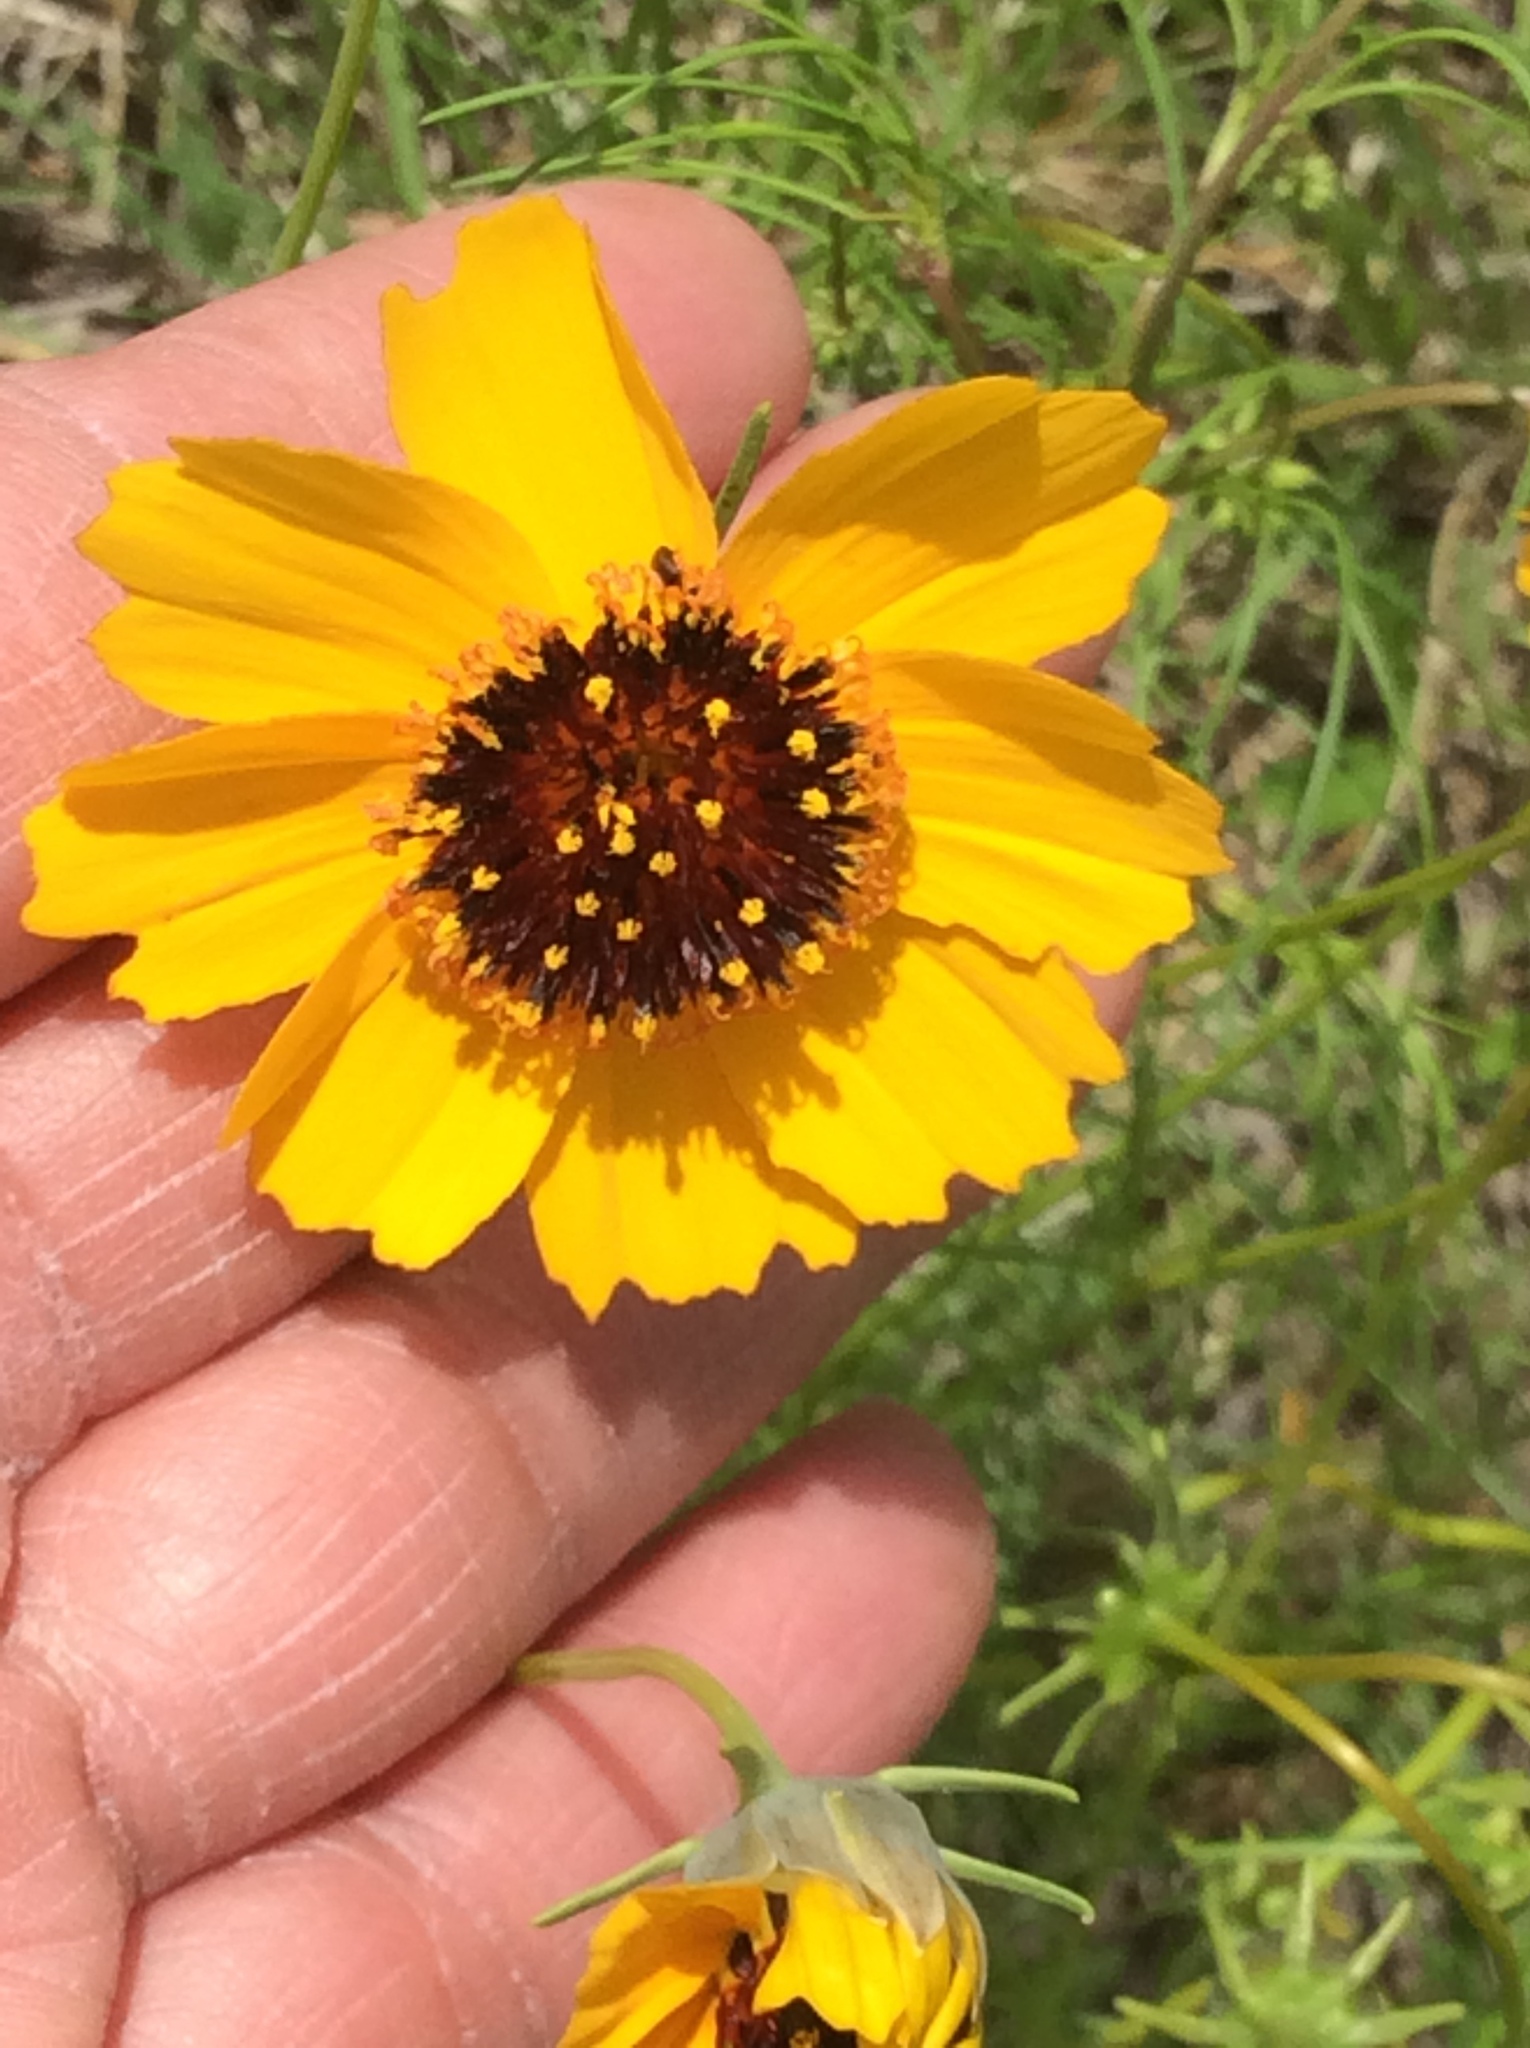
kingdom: Plantae
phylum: Tracheophyta
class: Magnoliopsida
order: Asterales
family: Asteraceae
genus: Thelesperma
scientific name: Thelesperma filifolium
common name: Stiff greenthread
